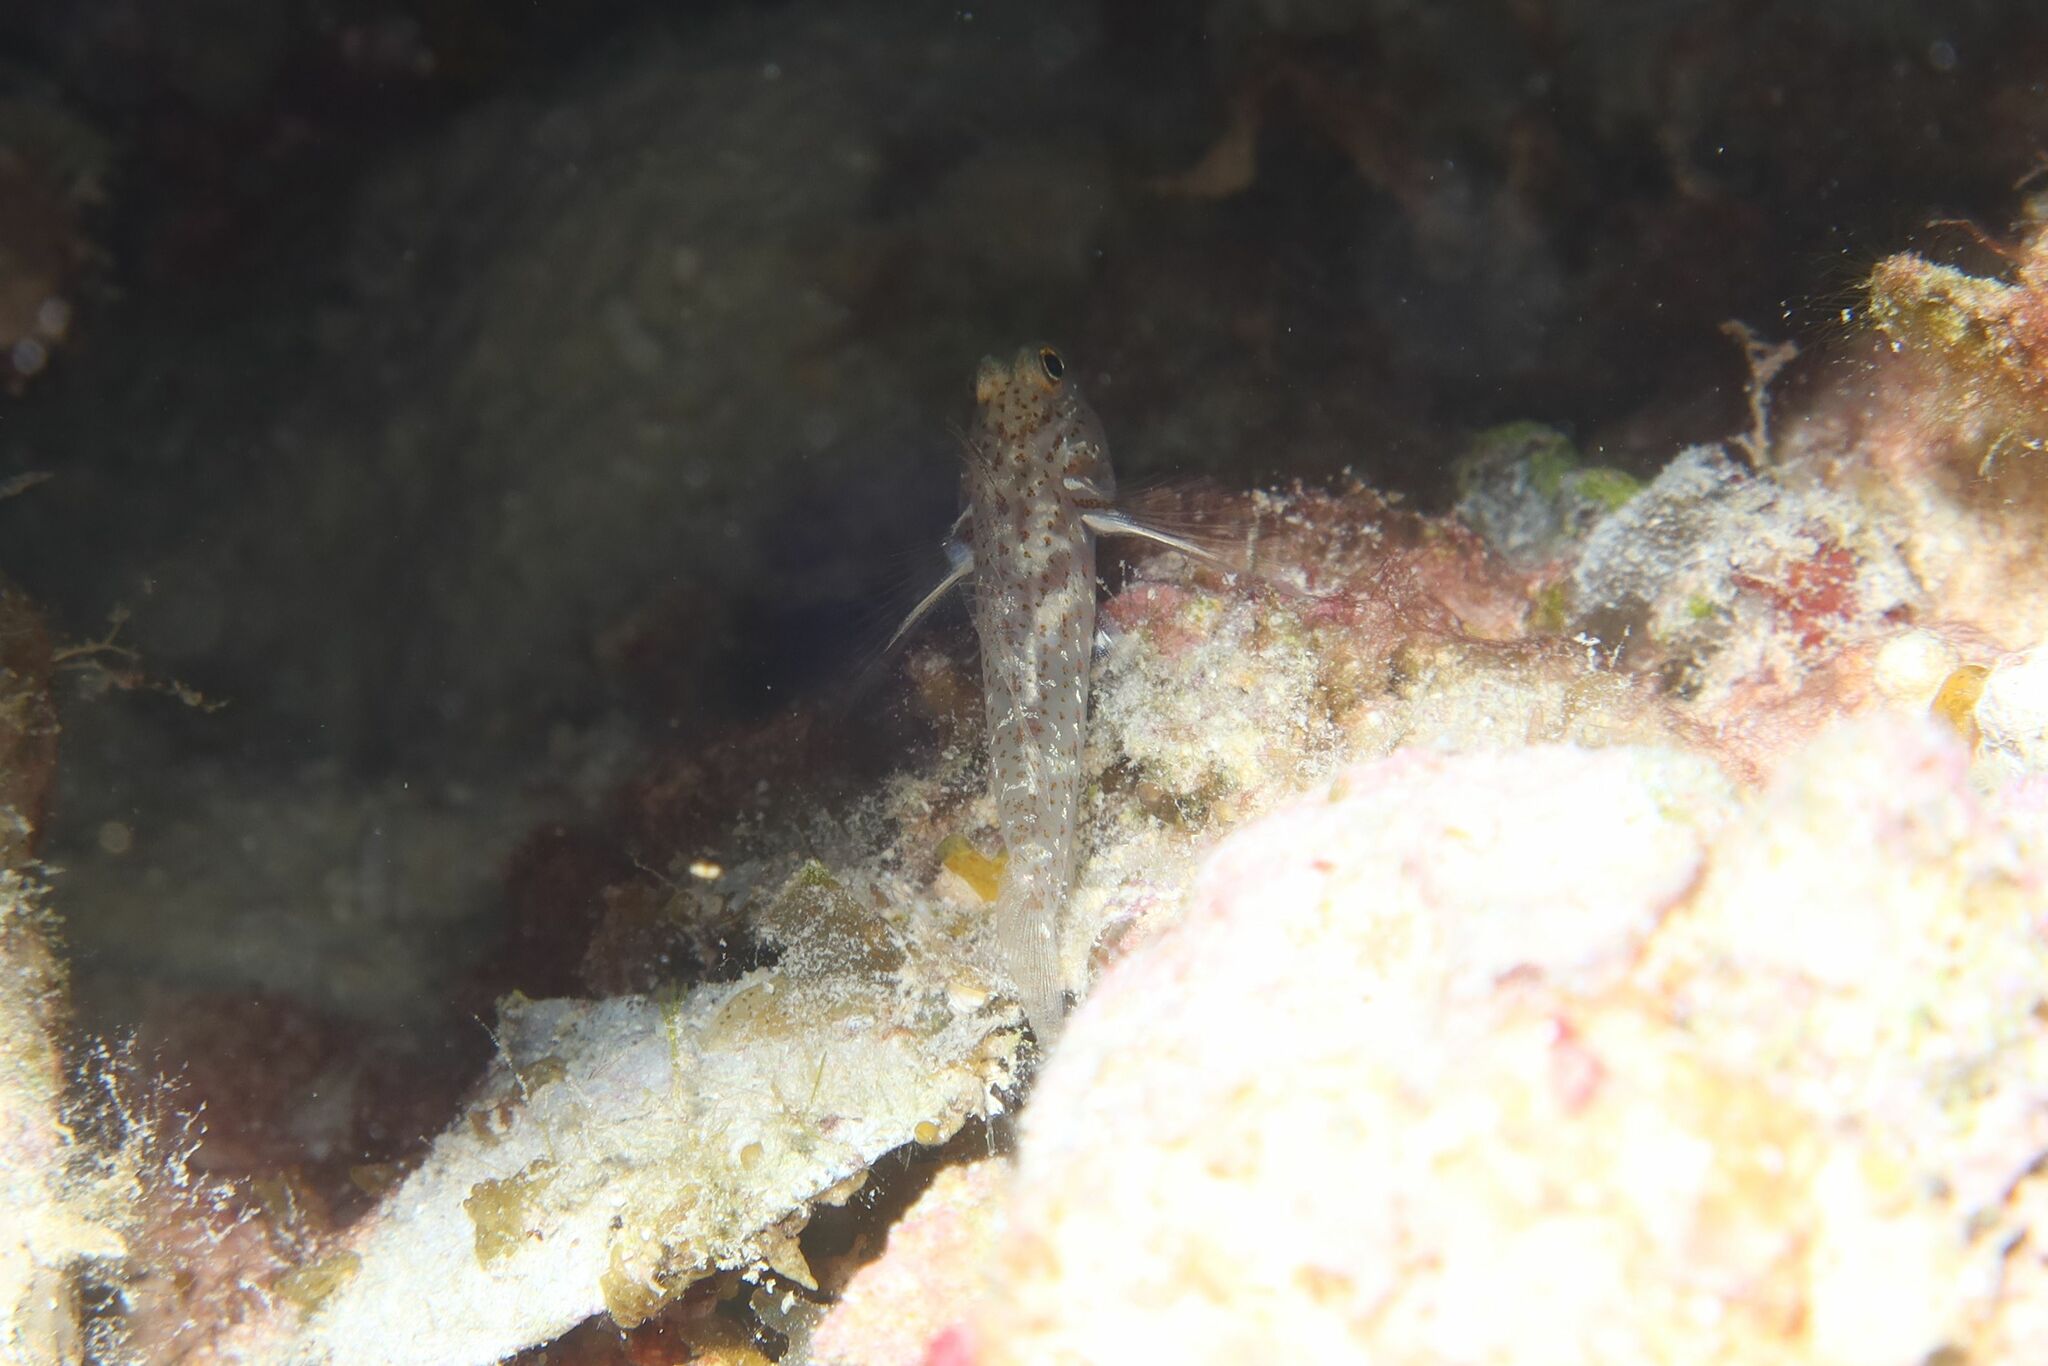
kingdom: Animalia
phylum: Chordata
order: Perciformes
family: Gobiidae
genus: Fusigobius
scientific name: Fusigobius humerosus
